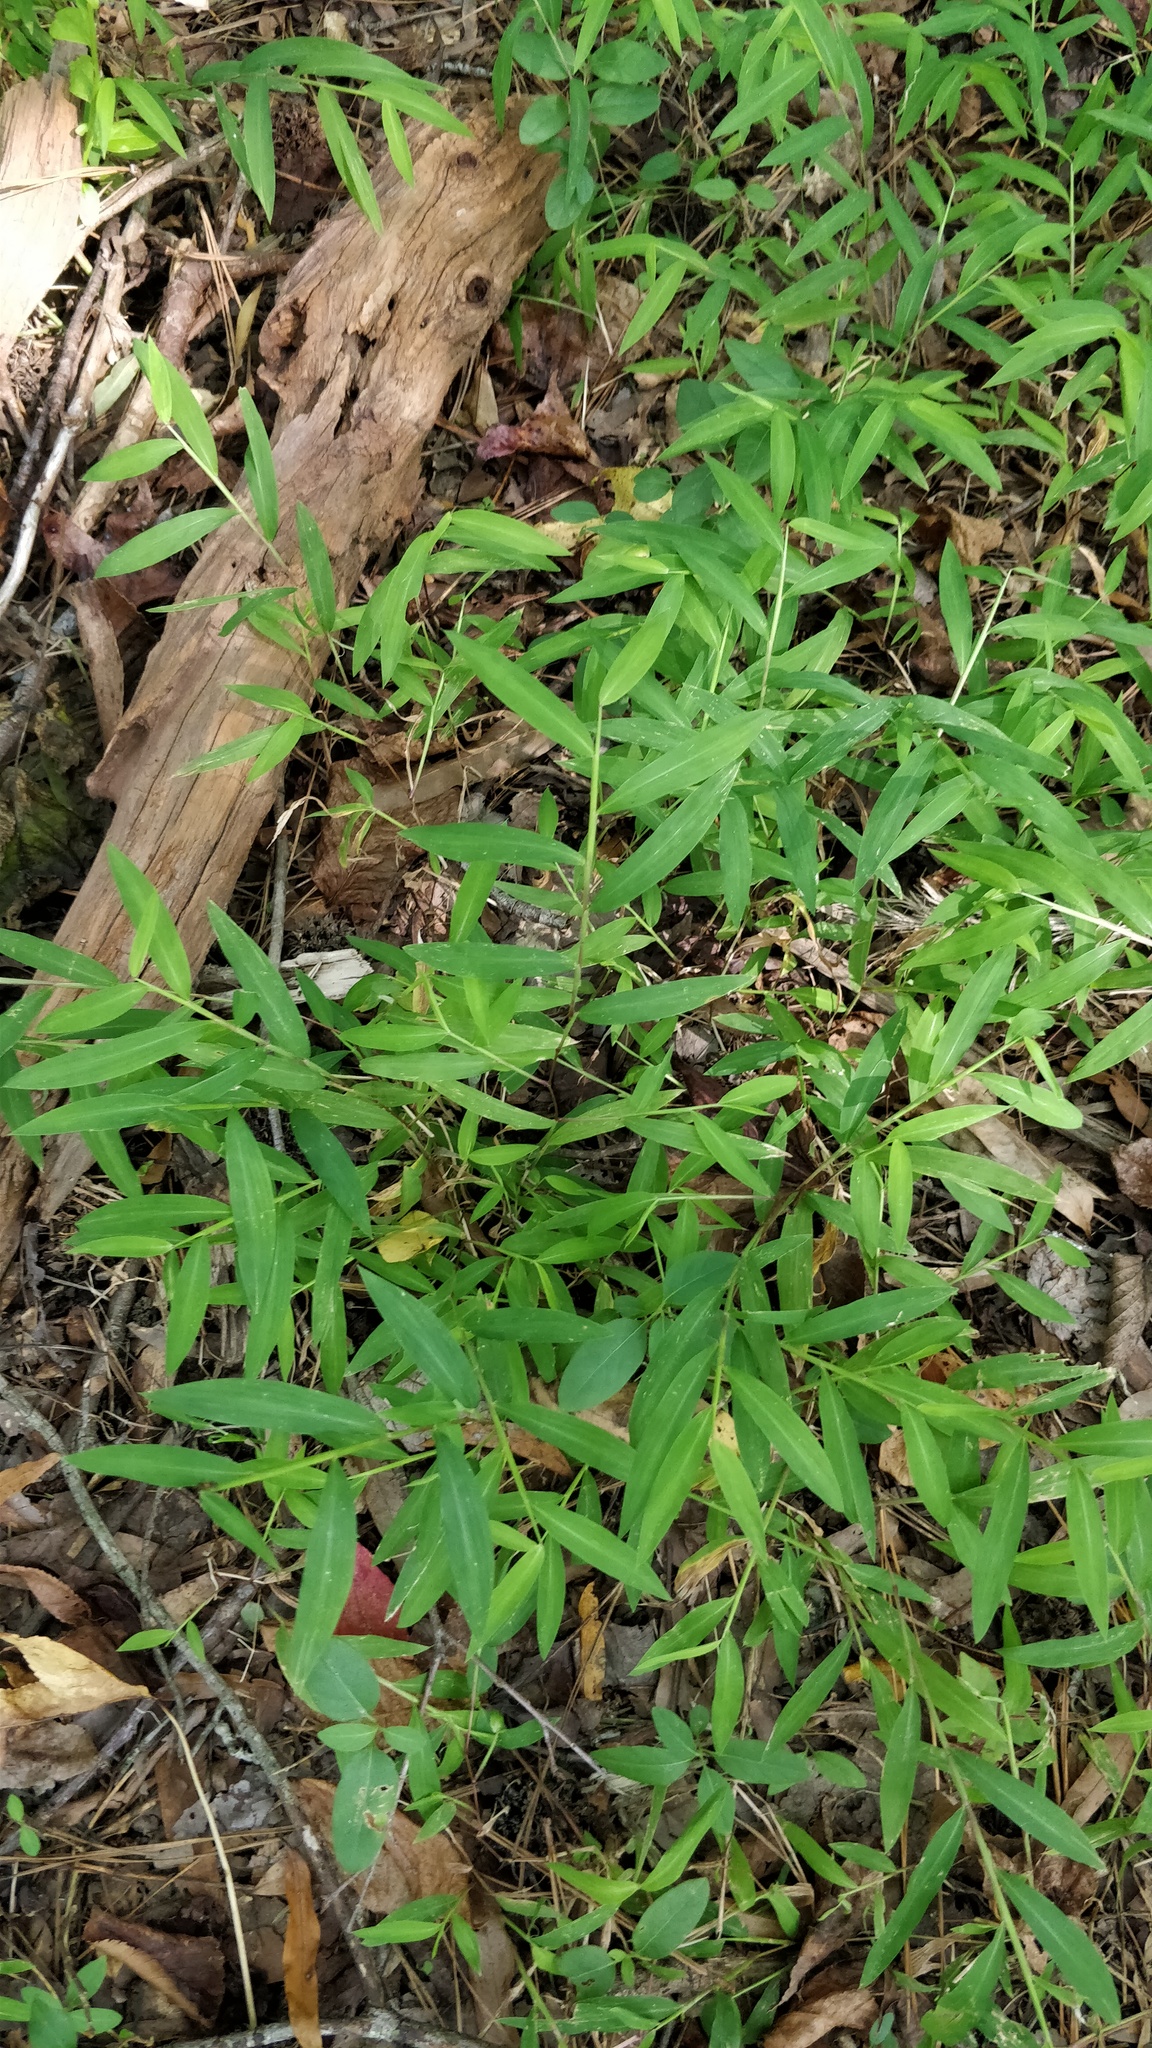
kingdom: Plantae
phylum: Tracheophyta
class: Liliopsida
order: Poales
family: Poaceae
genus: Microstegium
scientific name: Microstegium vimineum
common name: Japanese stiltgrass
